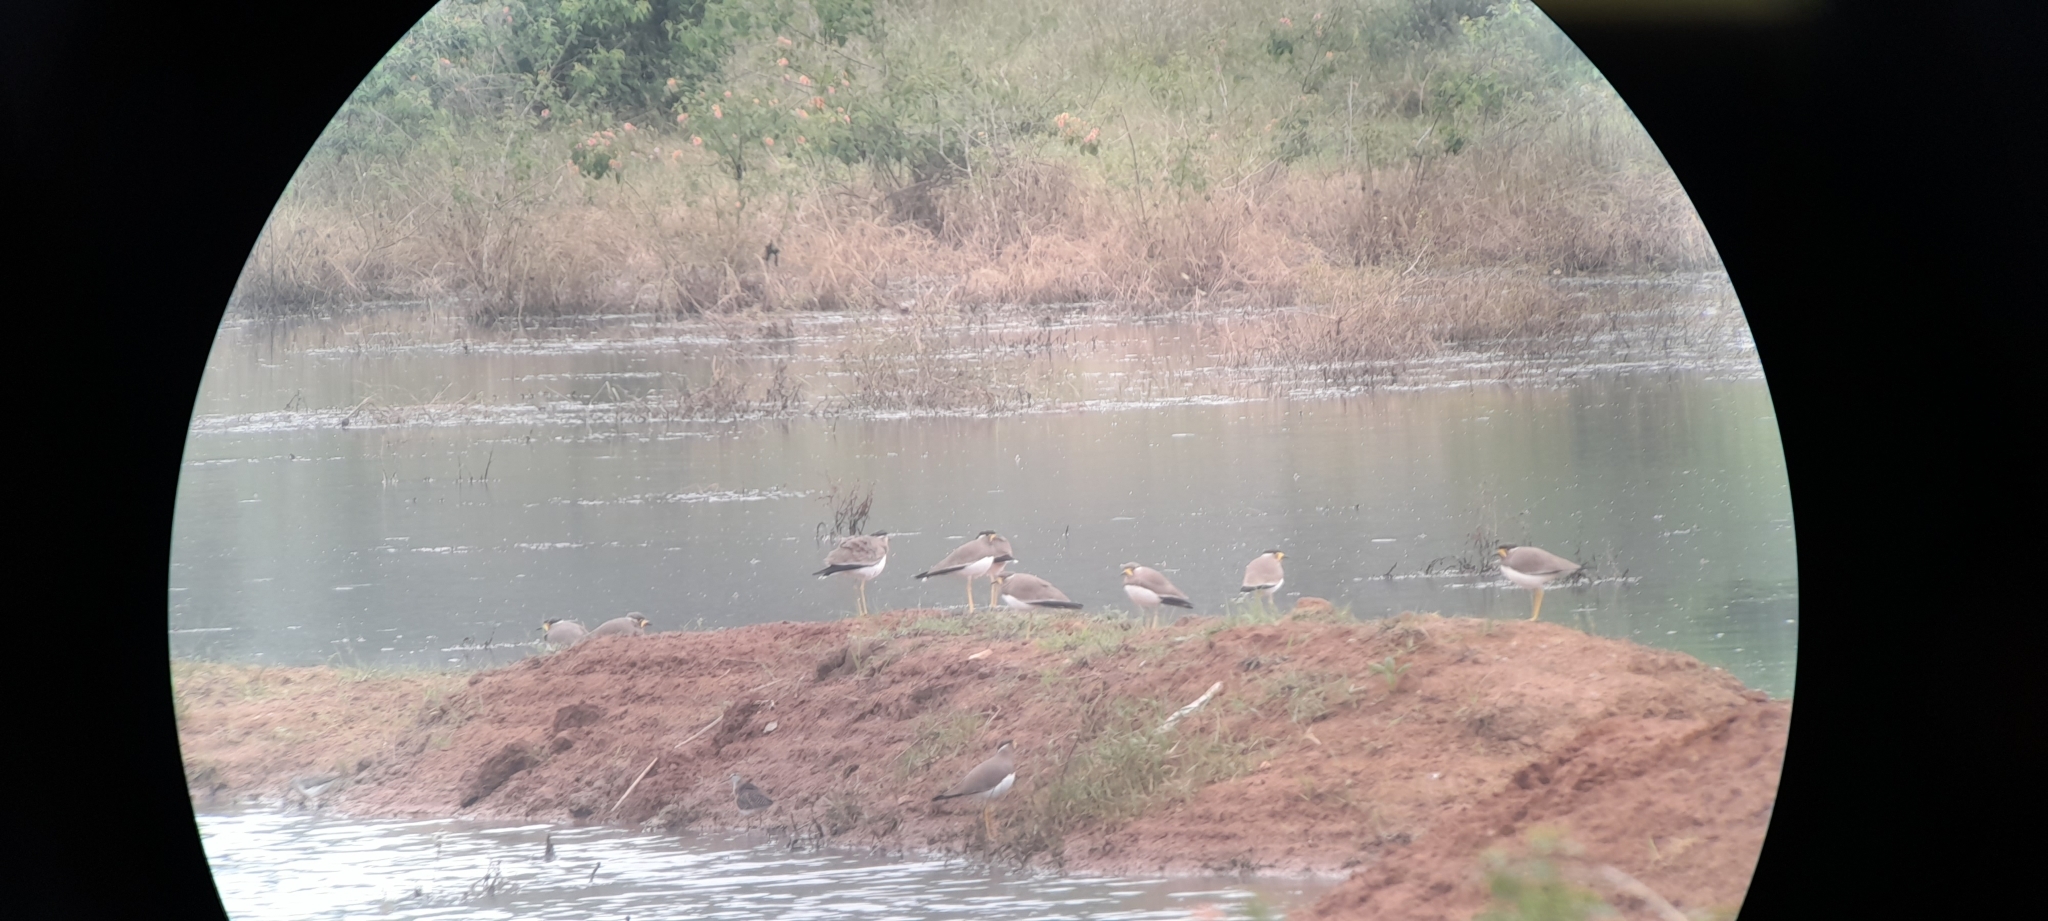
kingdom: Animalia
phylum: Chordata
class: Aves
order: Charadriiformes
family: Charadriidae
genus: Vanellus
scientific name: Vanellus malabaricus
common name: Yellow-wattled lapwing
